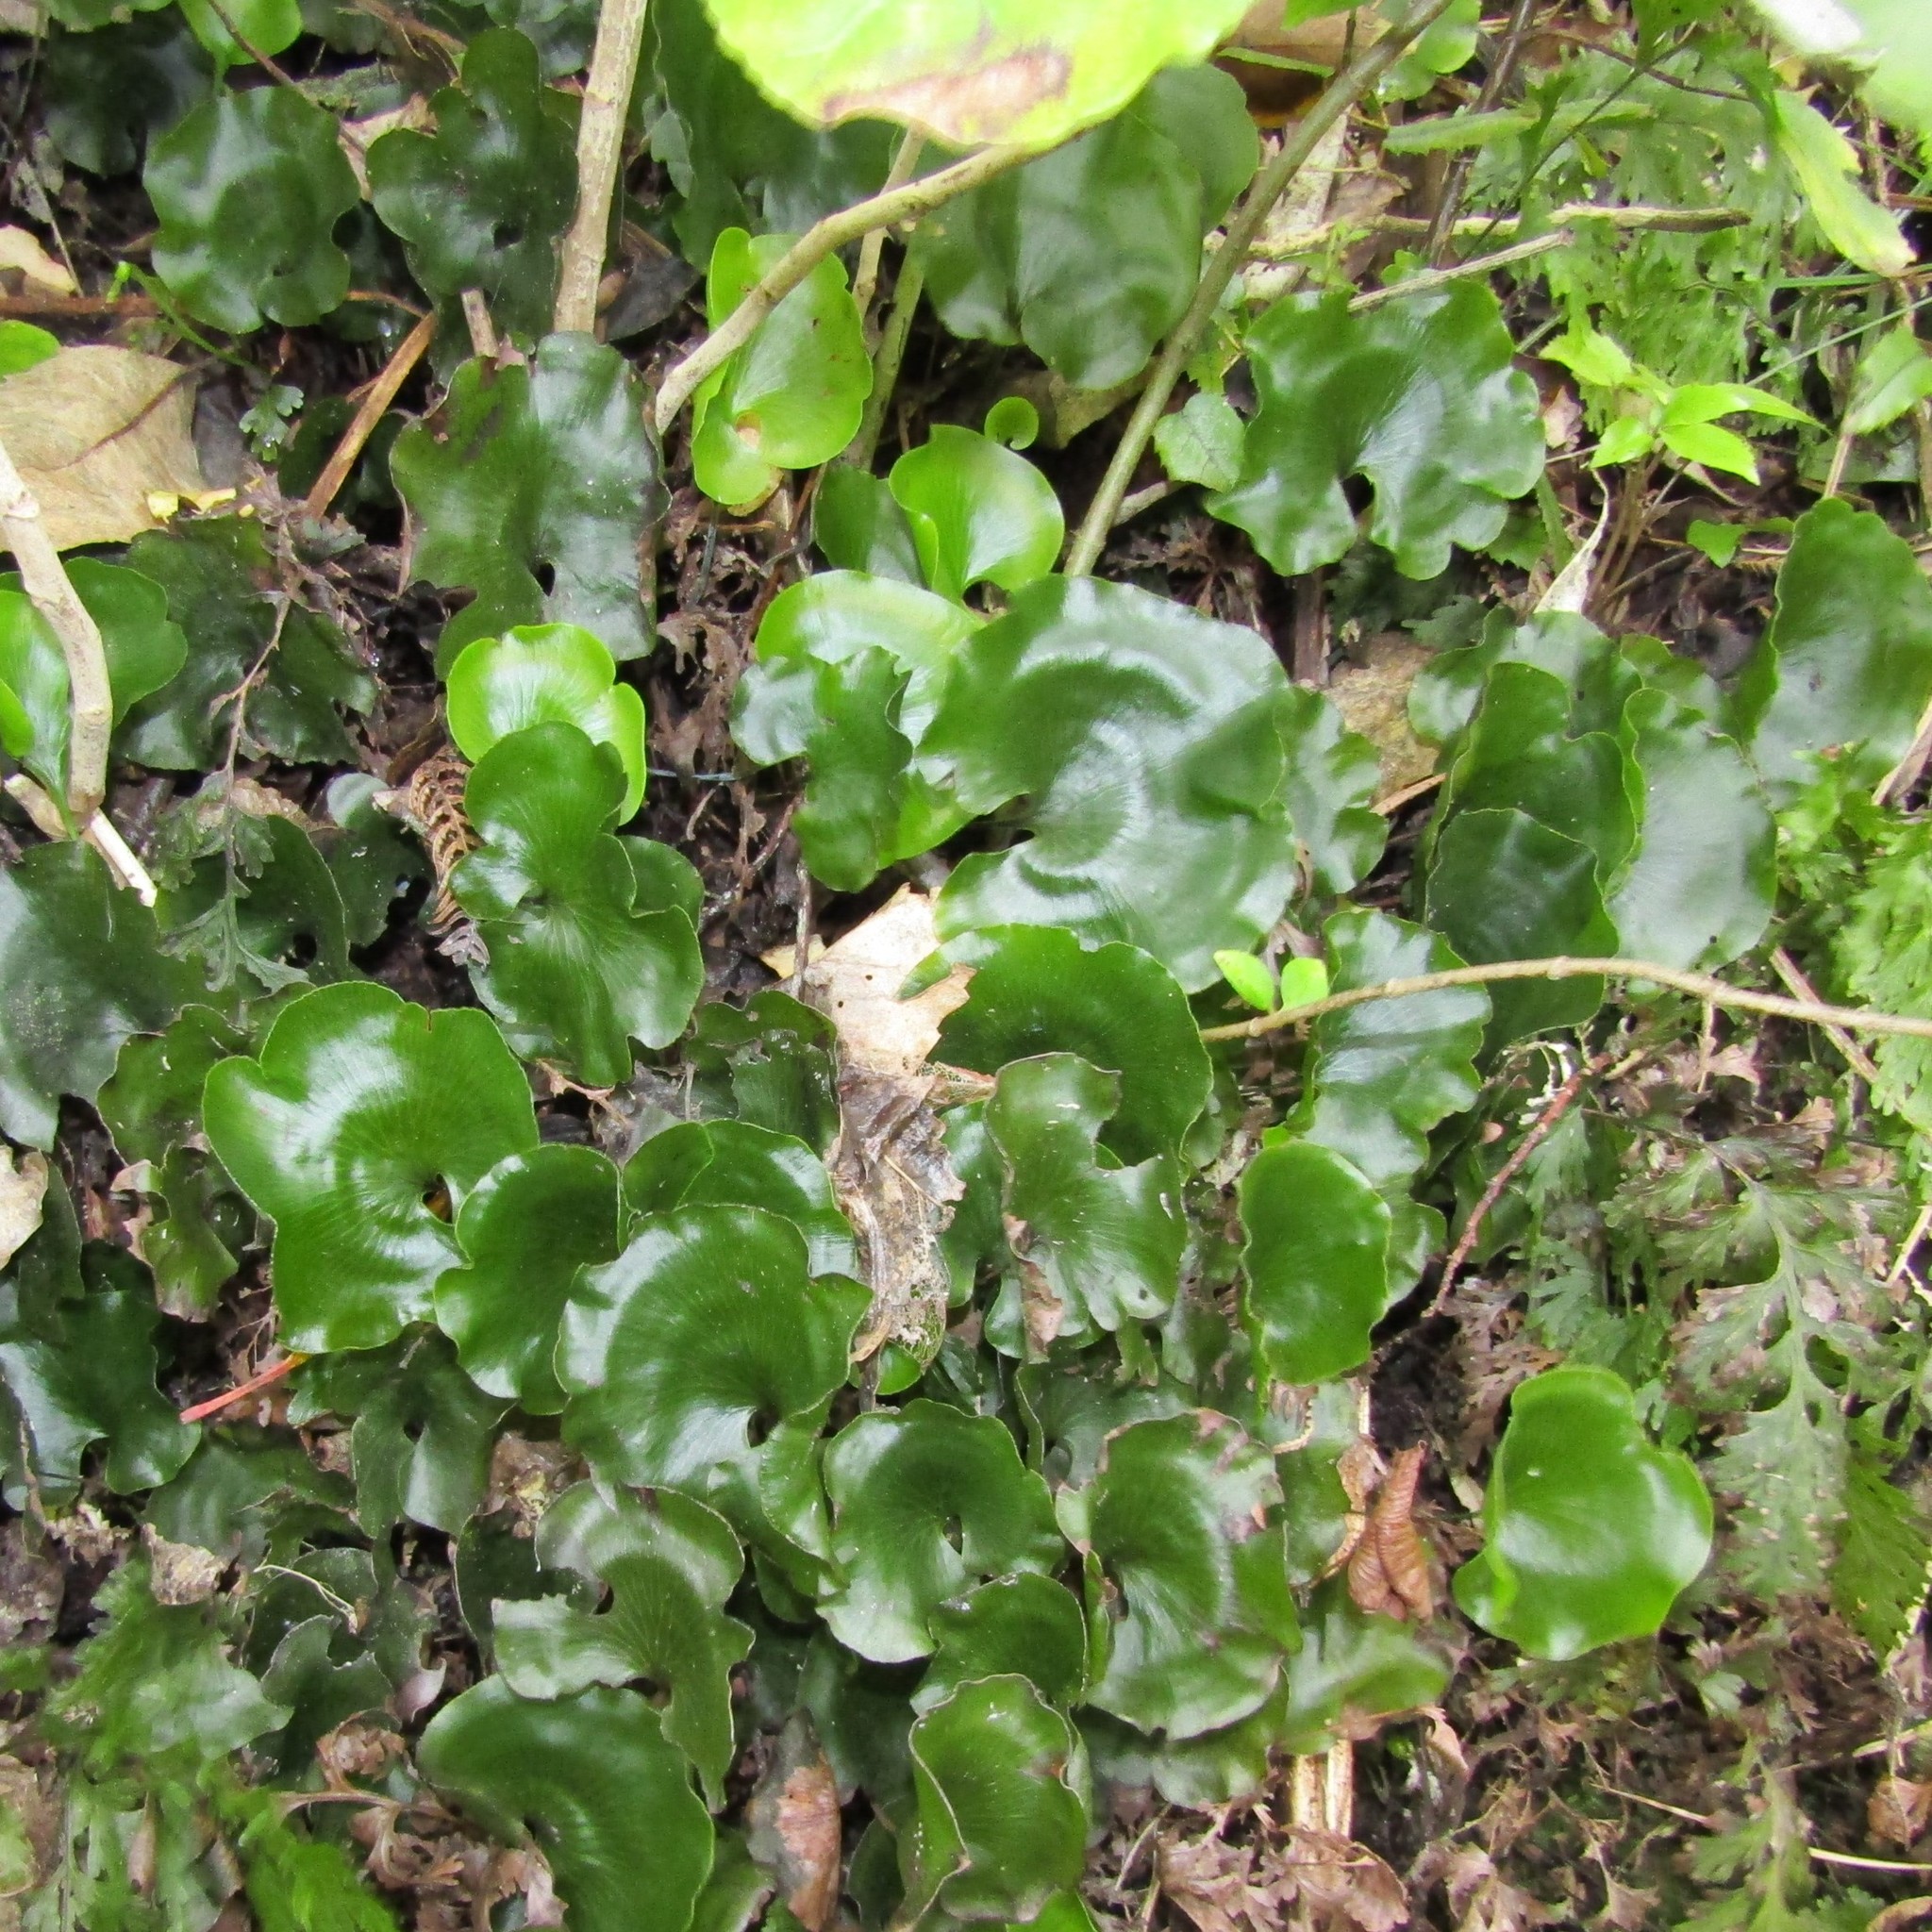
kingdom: Plantae
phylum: Tracheophyta
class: Polypodiopsida
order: Hymenophyllales
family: Hymenophyllaceae
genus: Hymenophyllum
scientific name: Hymenophyllum nephrophyllum
